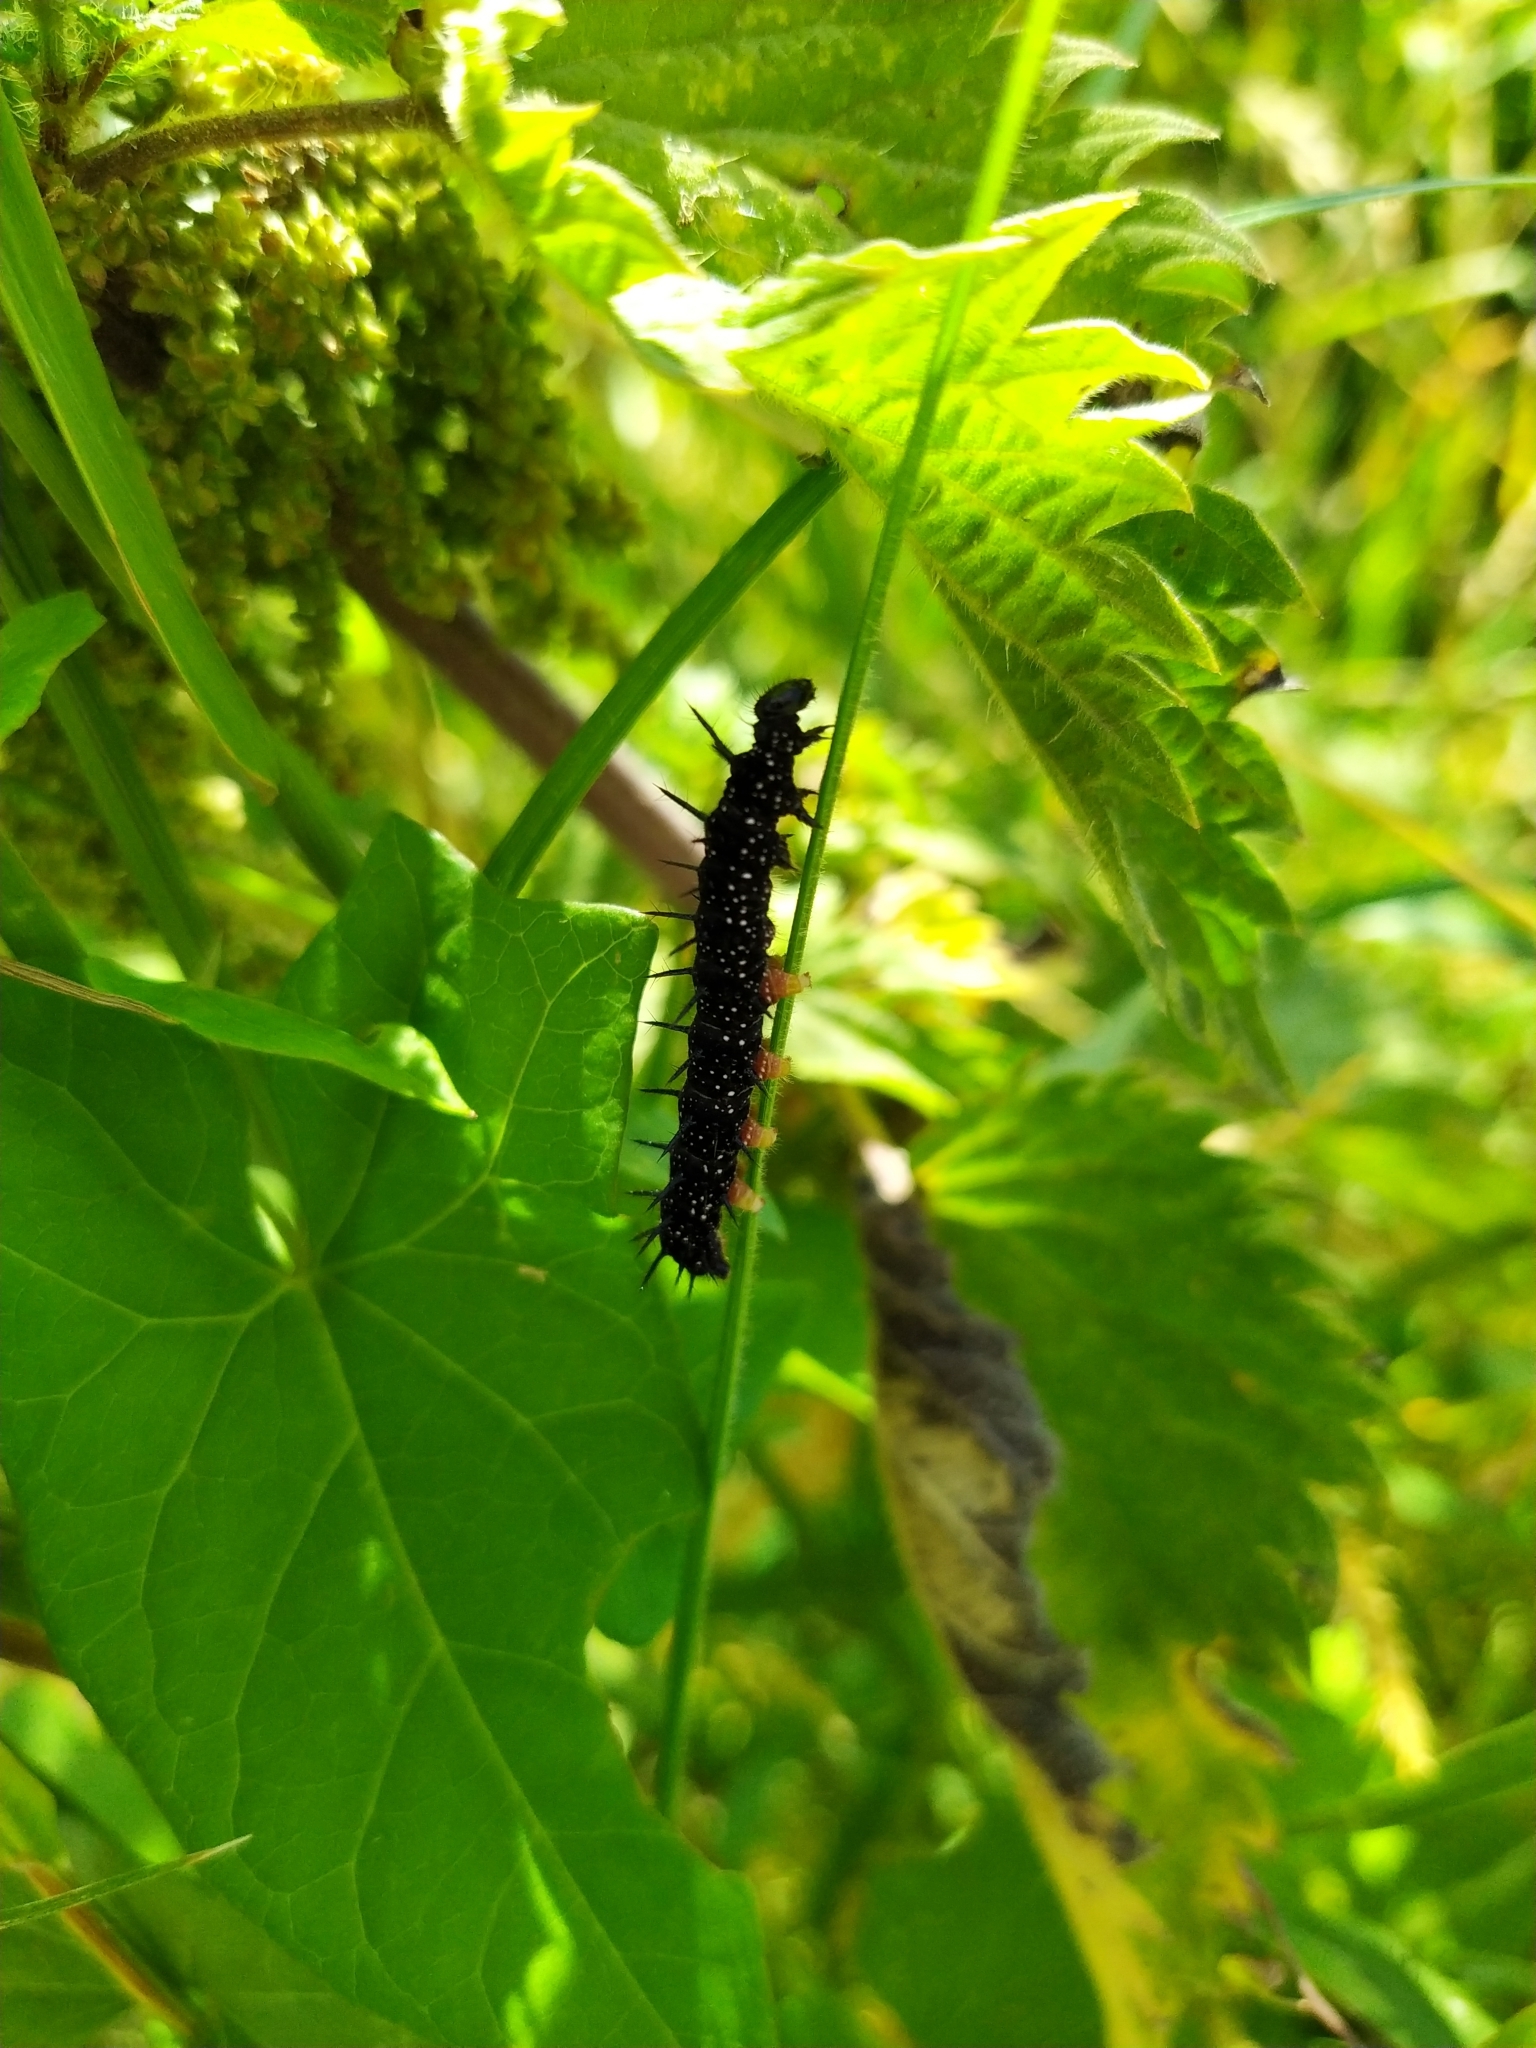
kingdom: Animalia
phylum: Arthropoda
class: Insecta
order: Lepidoptera
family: Nymphalidae
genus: Aglais
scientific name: Aglais io
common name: Peacock
